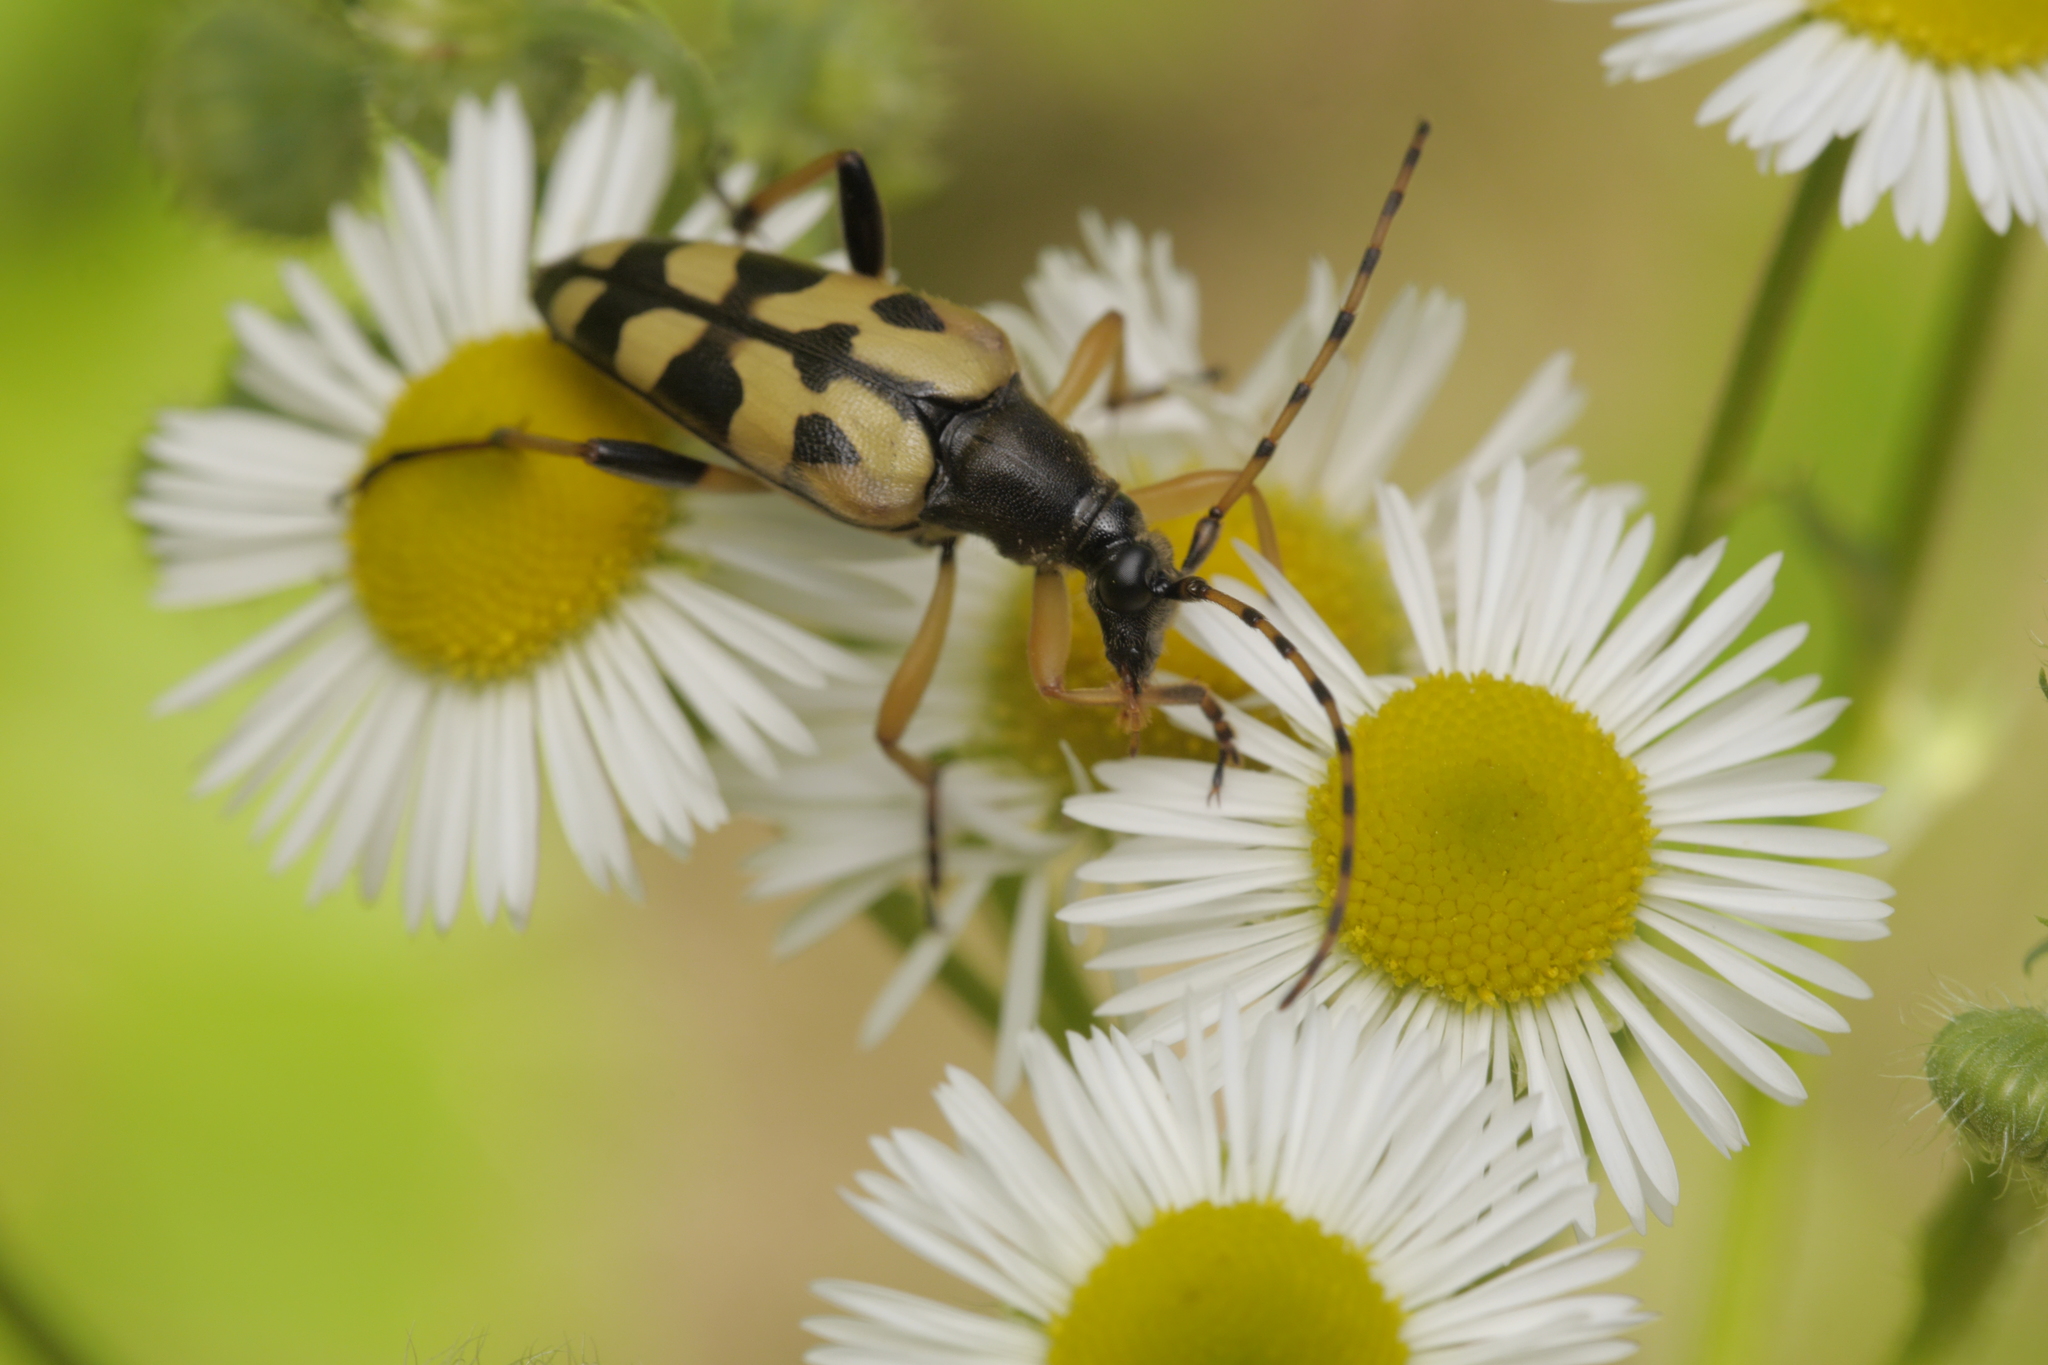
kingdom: Animalia
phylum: Arthropoda
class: Insecta
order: Coleoptera
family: Cerambycidae
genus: Rutpela
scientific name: Rutpela maculata
